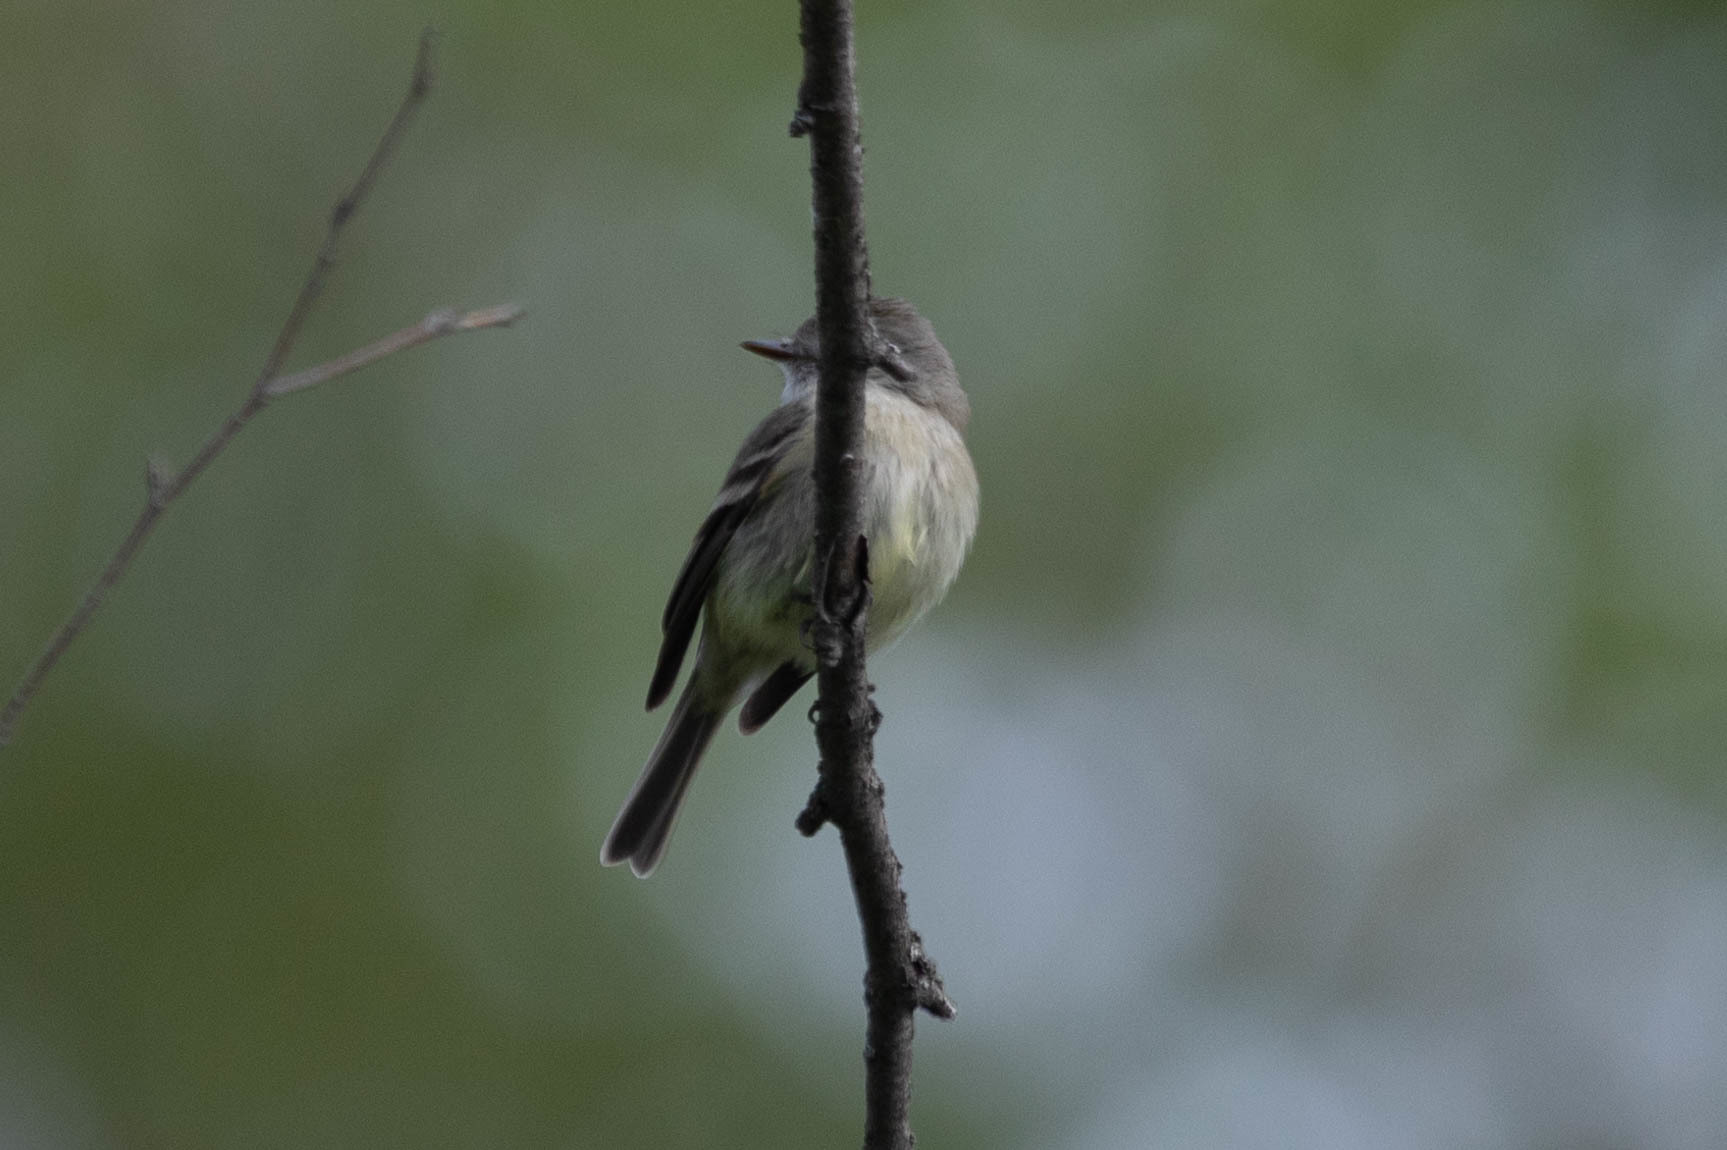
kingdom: Animalia
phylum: Chordata
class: Aves
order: Passeriformes
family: Tyrannidae
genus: Empidonax
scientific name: Empidonax hammondii
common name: Hammond's flycatcher
